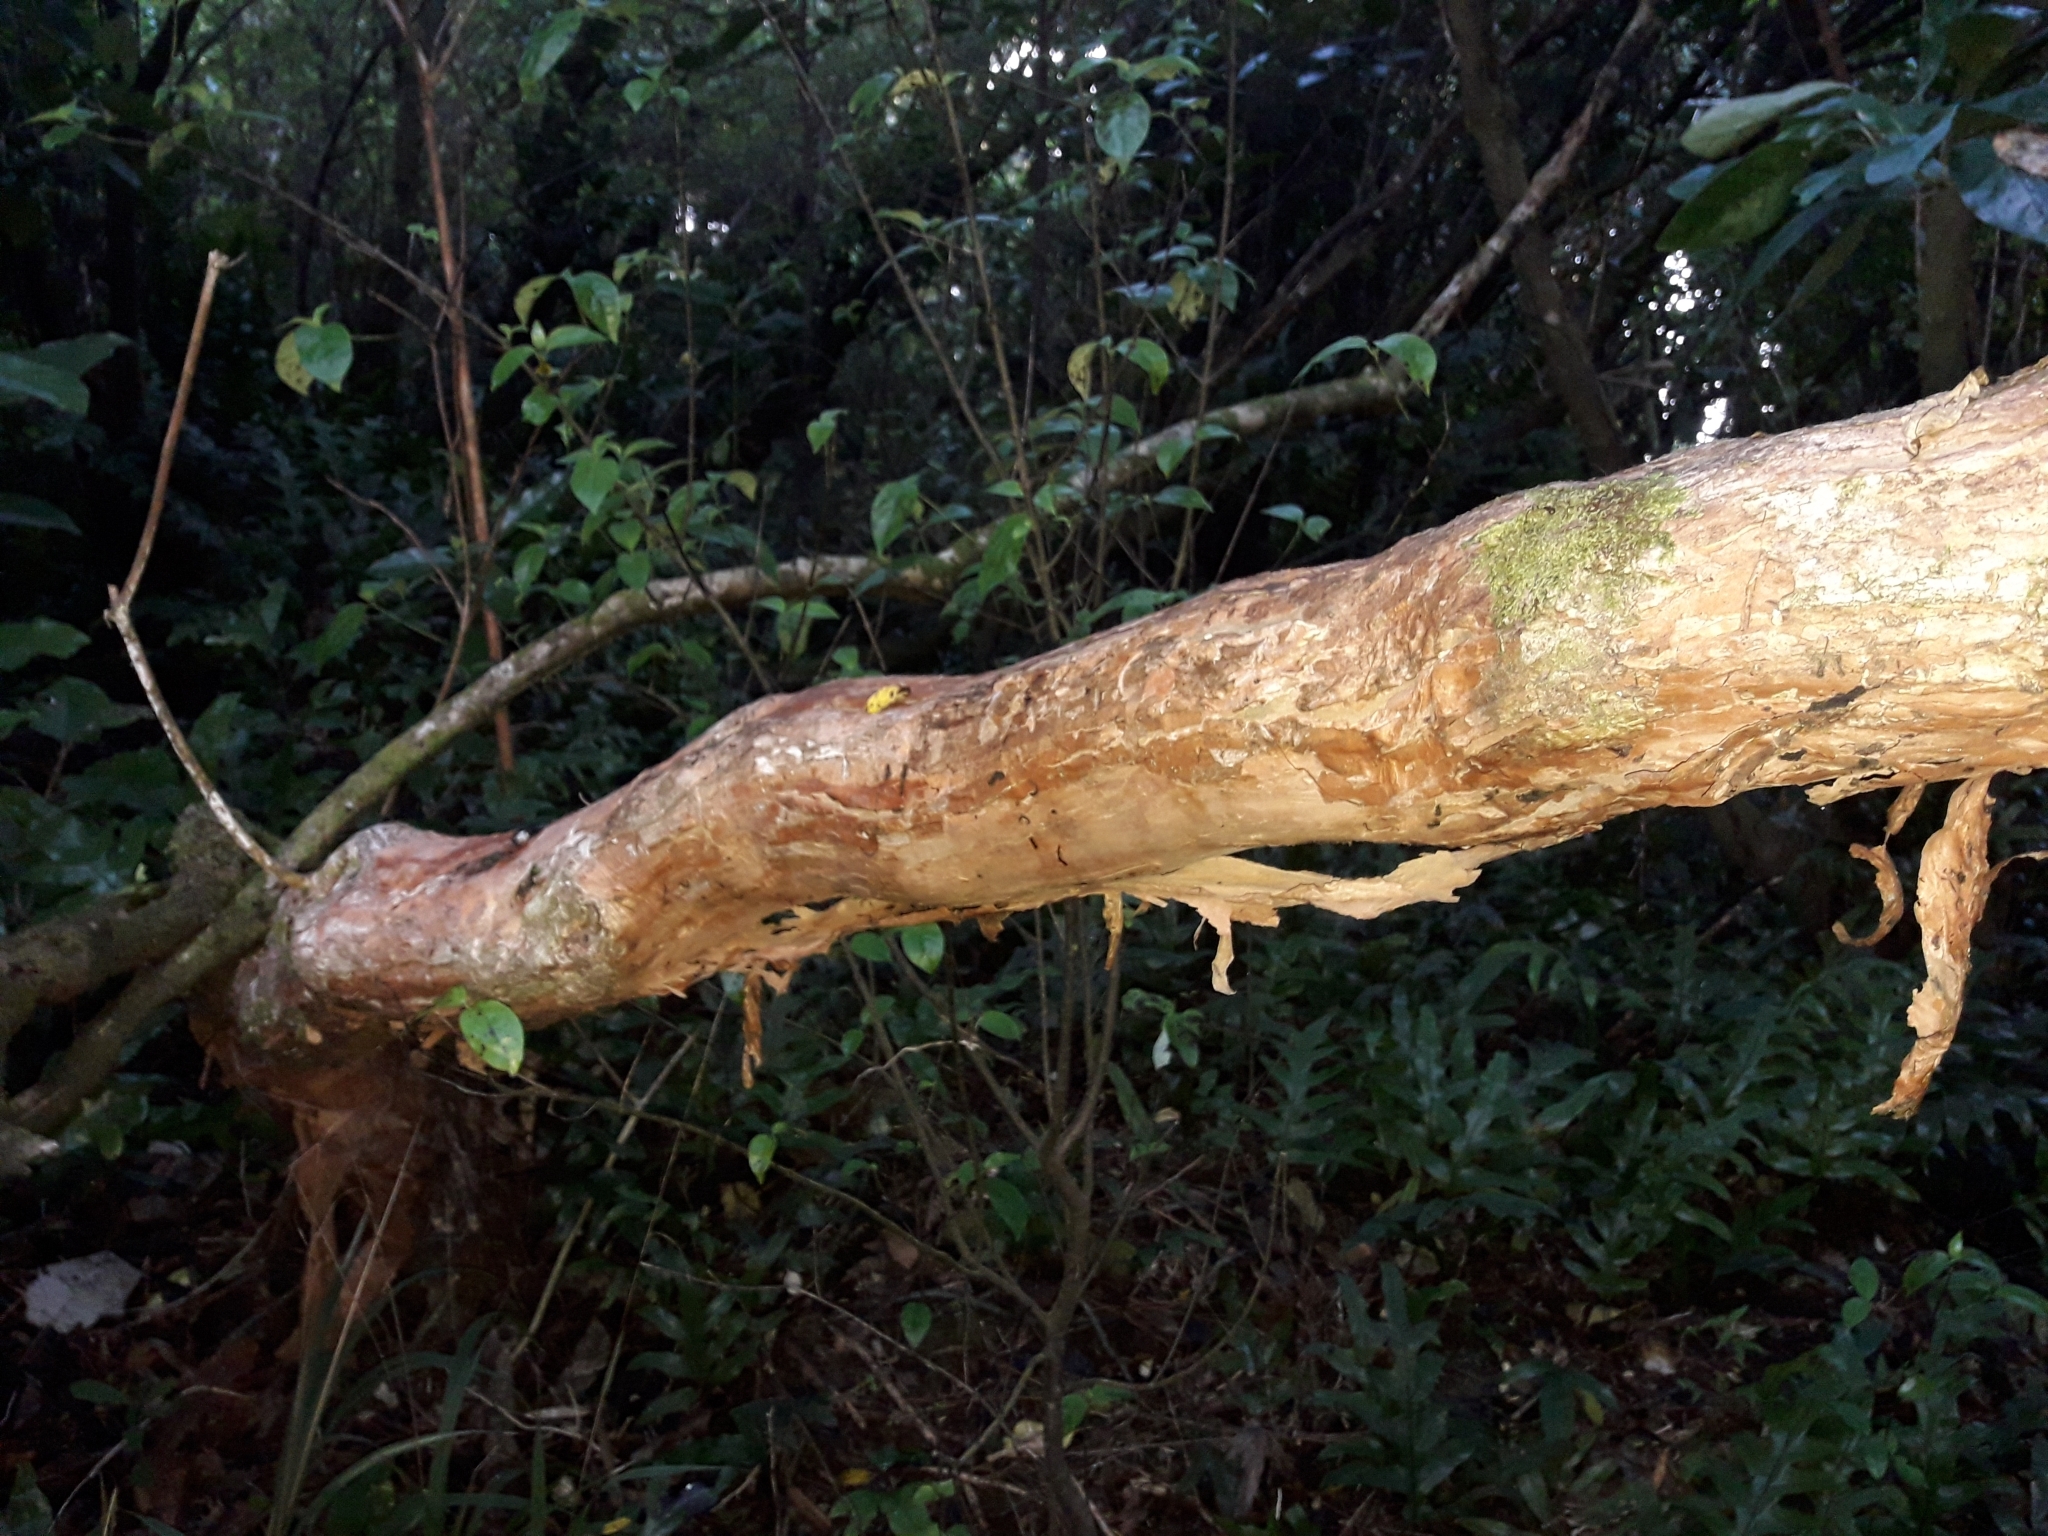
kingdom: Plantae
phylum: Tracheophyta
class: Magnoliopsida
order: Myrtales
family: Onagraceae
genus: Fuchsia
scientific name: Fuchsia excorticata
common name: Tree fuchsia
